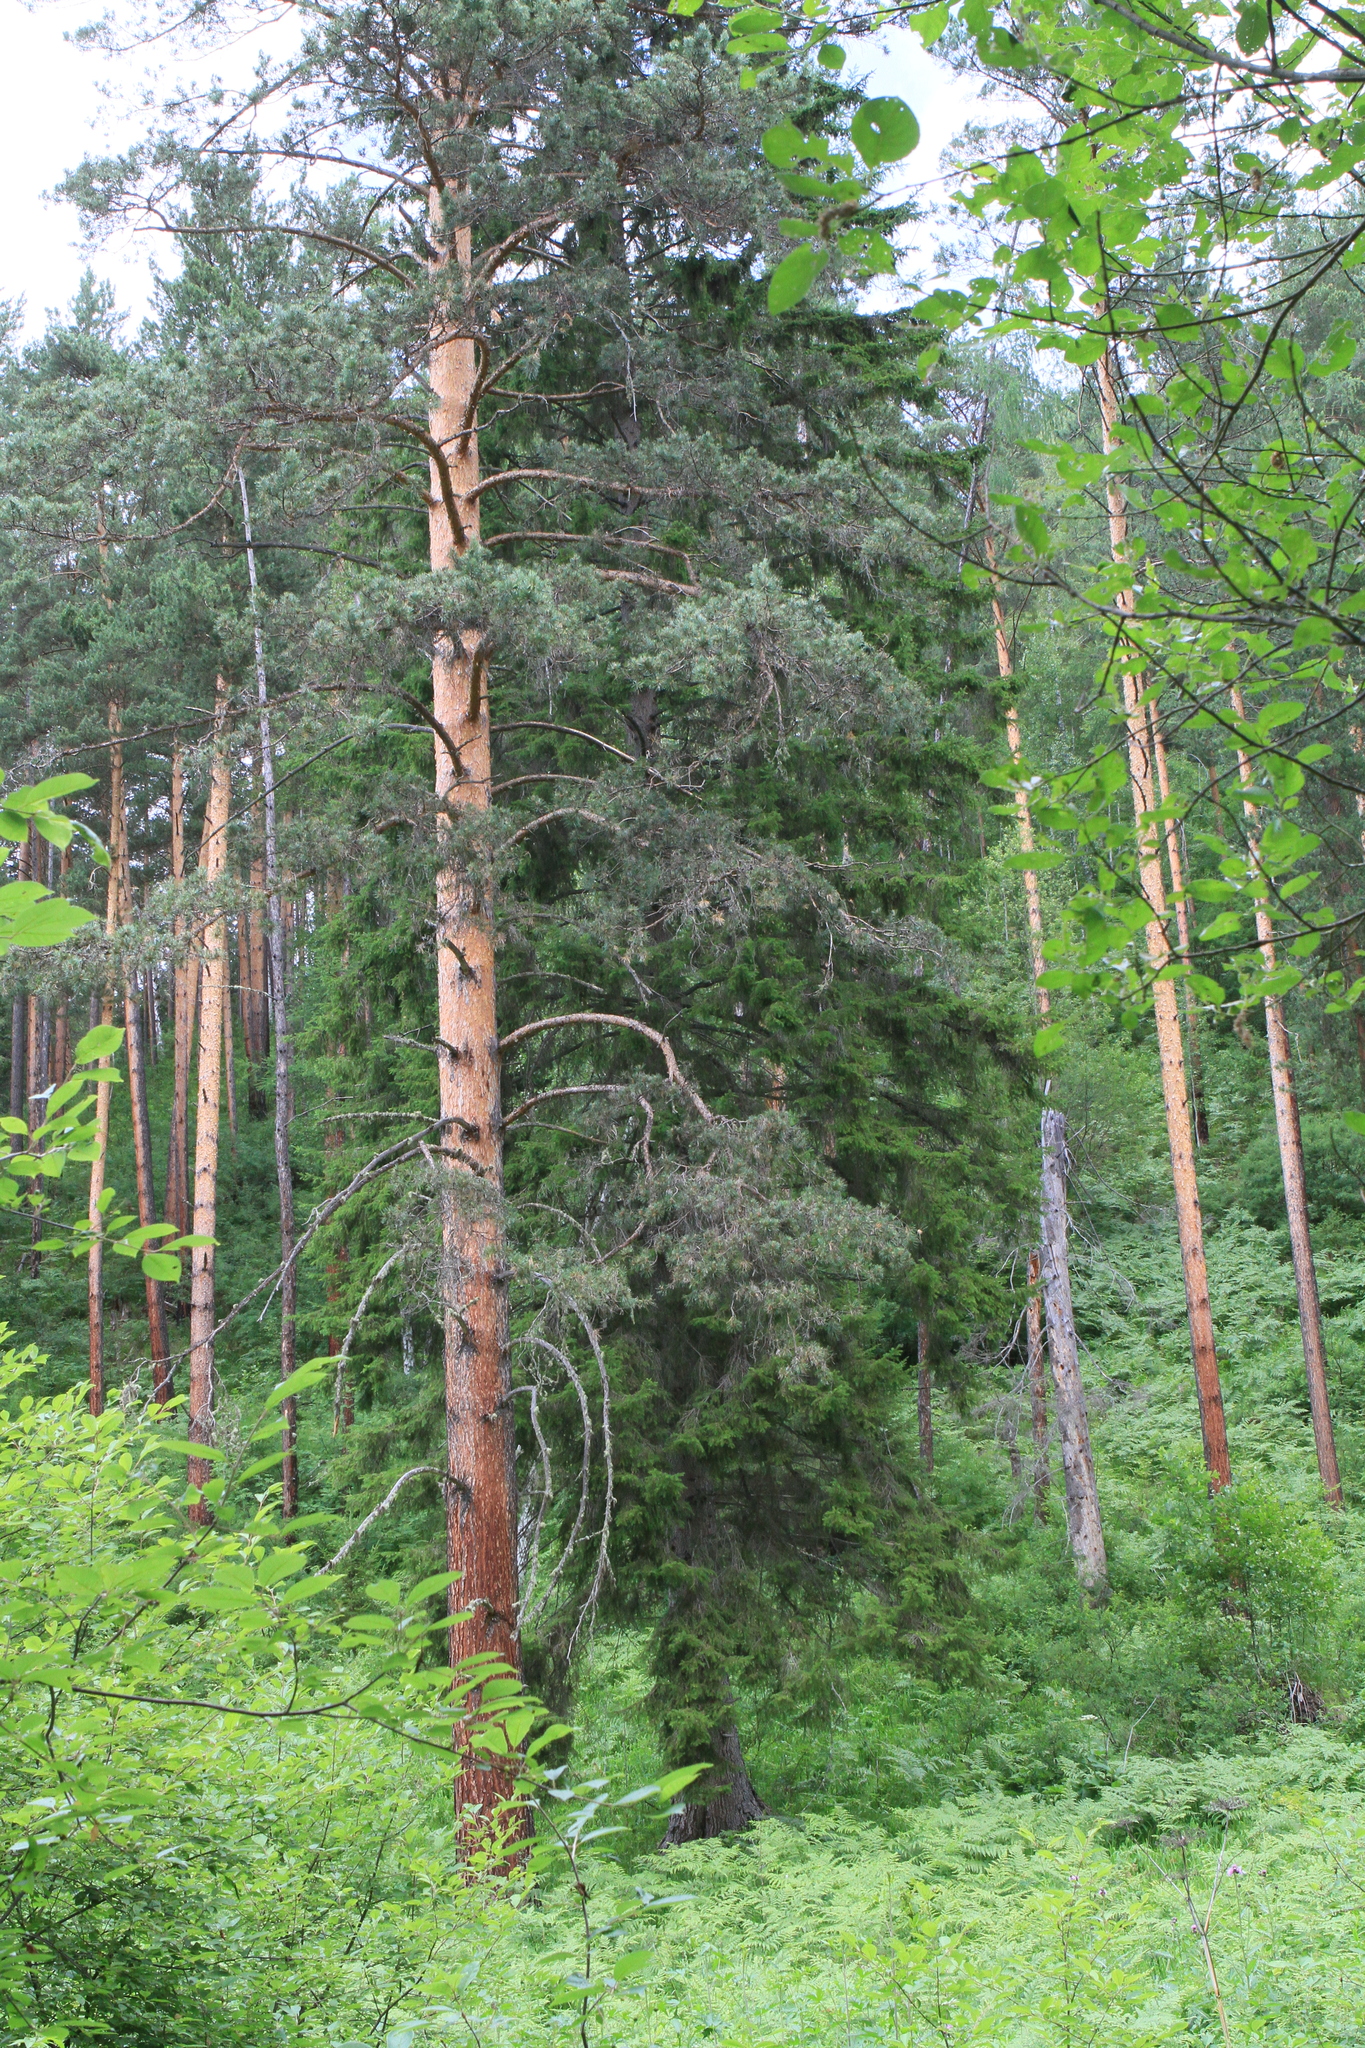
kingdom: Plantae
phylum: Tracheophyta
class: Pinopsida
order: Pinales
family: Pinaceae
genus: Pinus
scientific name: Pinus sylvestris
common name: Scots pine
